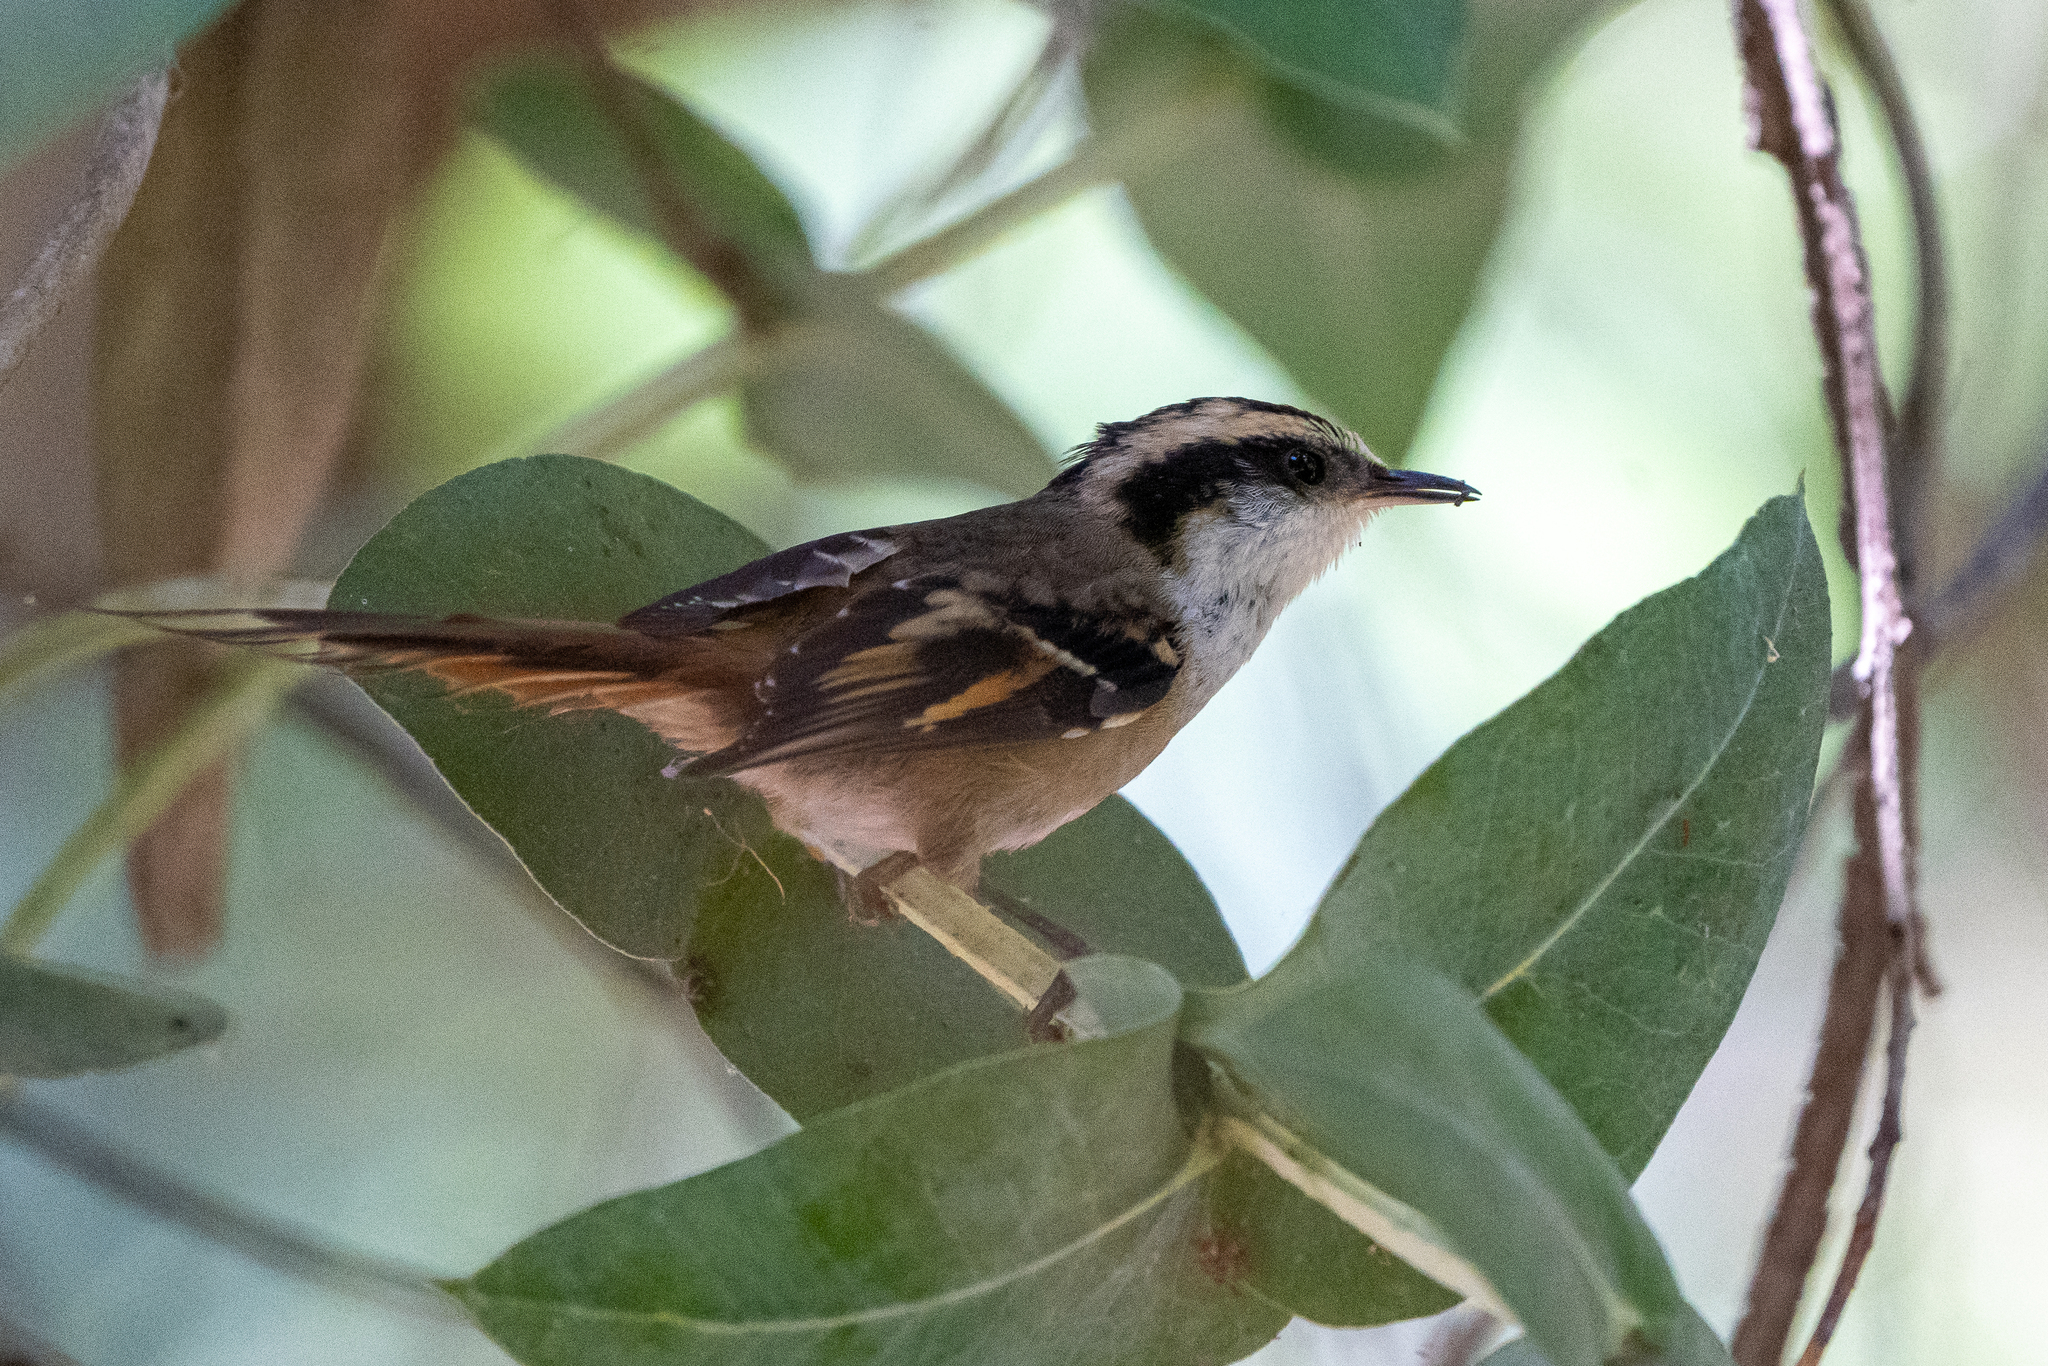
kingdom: Animalia
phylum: Chordata
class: Aves
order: Passeriformes
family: Furnariidae
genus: Aphrastura
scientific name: Aphrastura spinicauda
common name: Thorn-tailed rayadito
